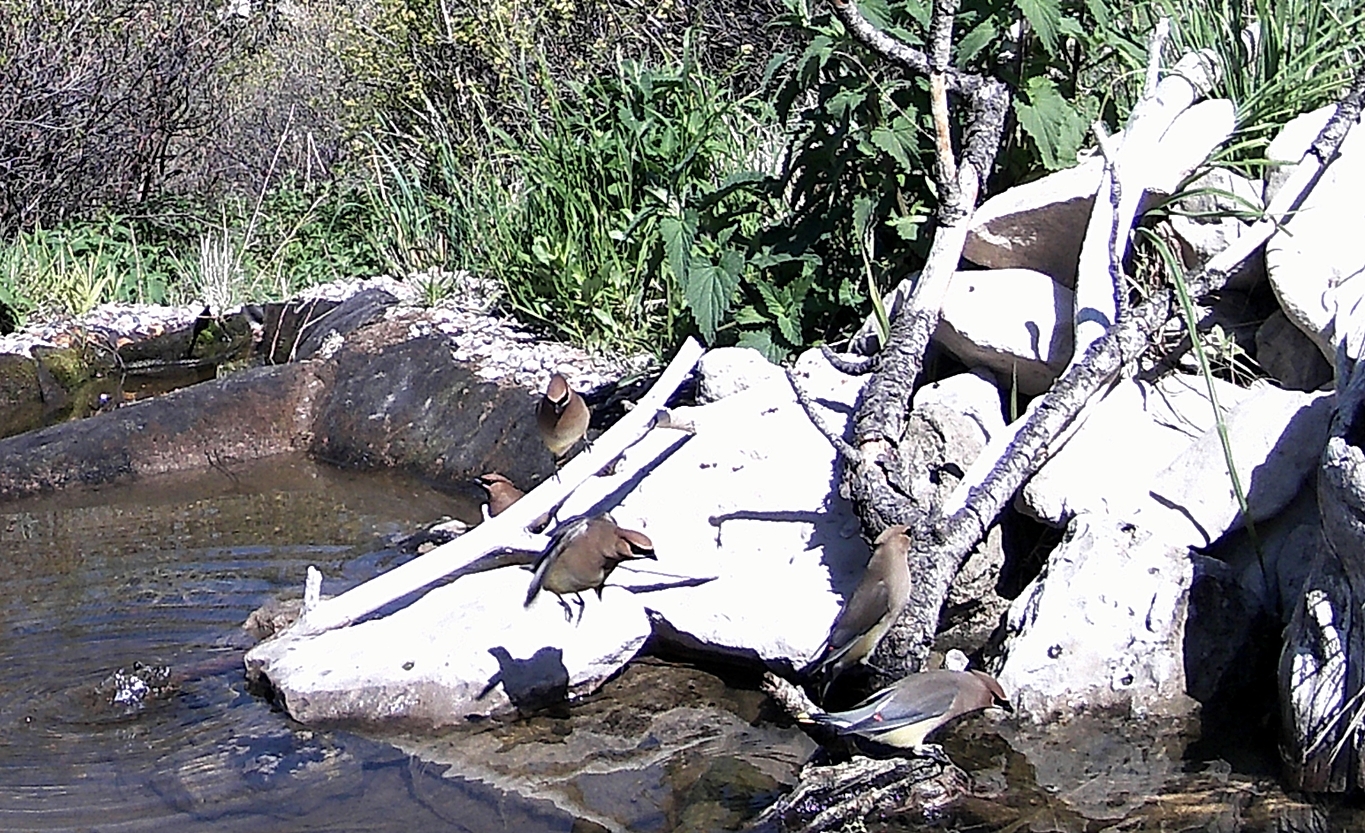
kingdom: Animalia
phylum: Chordata
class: Aves
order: Passeriformes
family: Bombycillidae
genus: Bombycilla
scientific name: Bombycilla cedrorum
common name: Cedar waxwing
